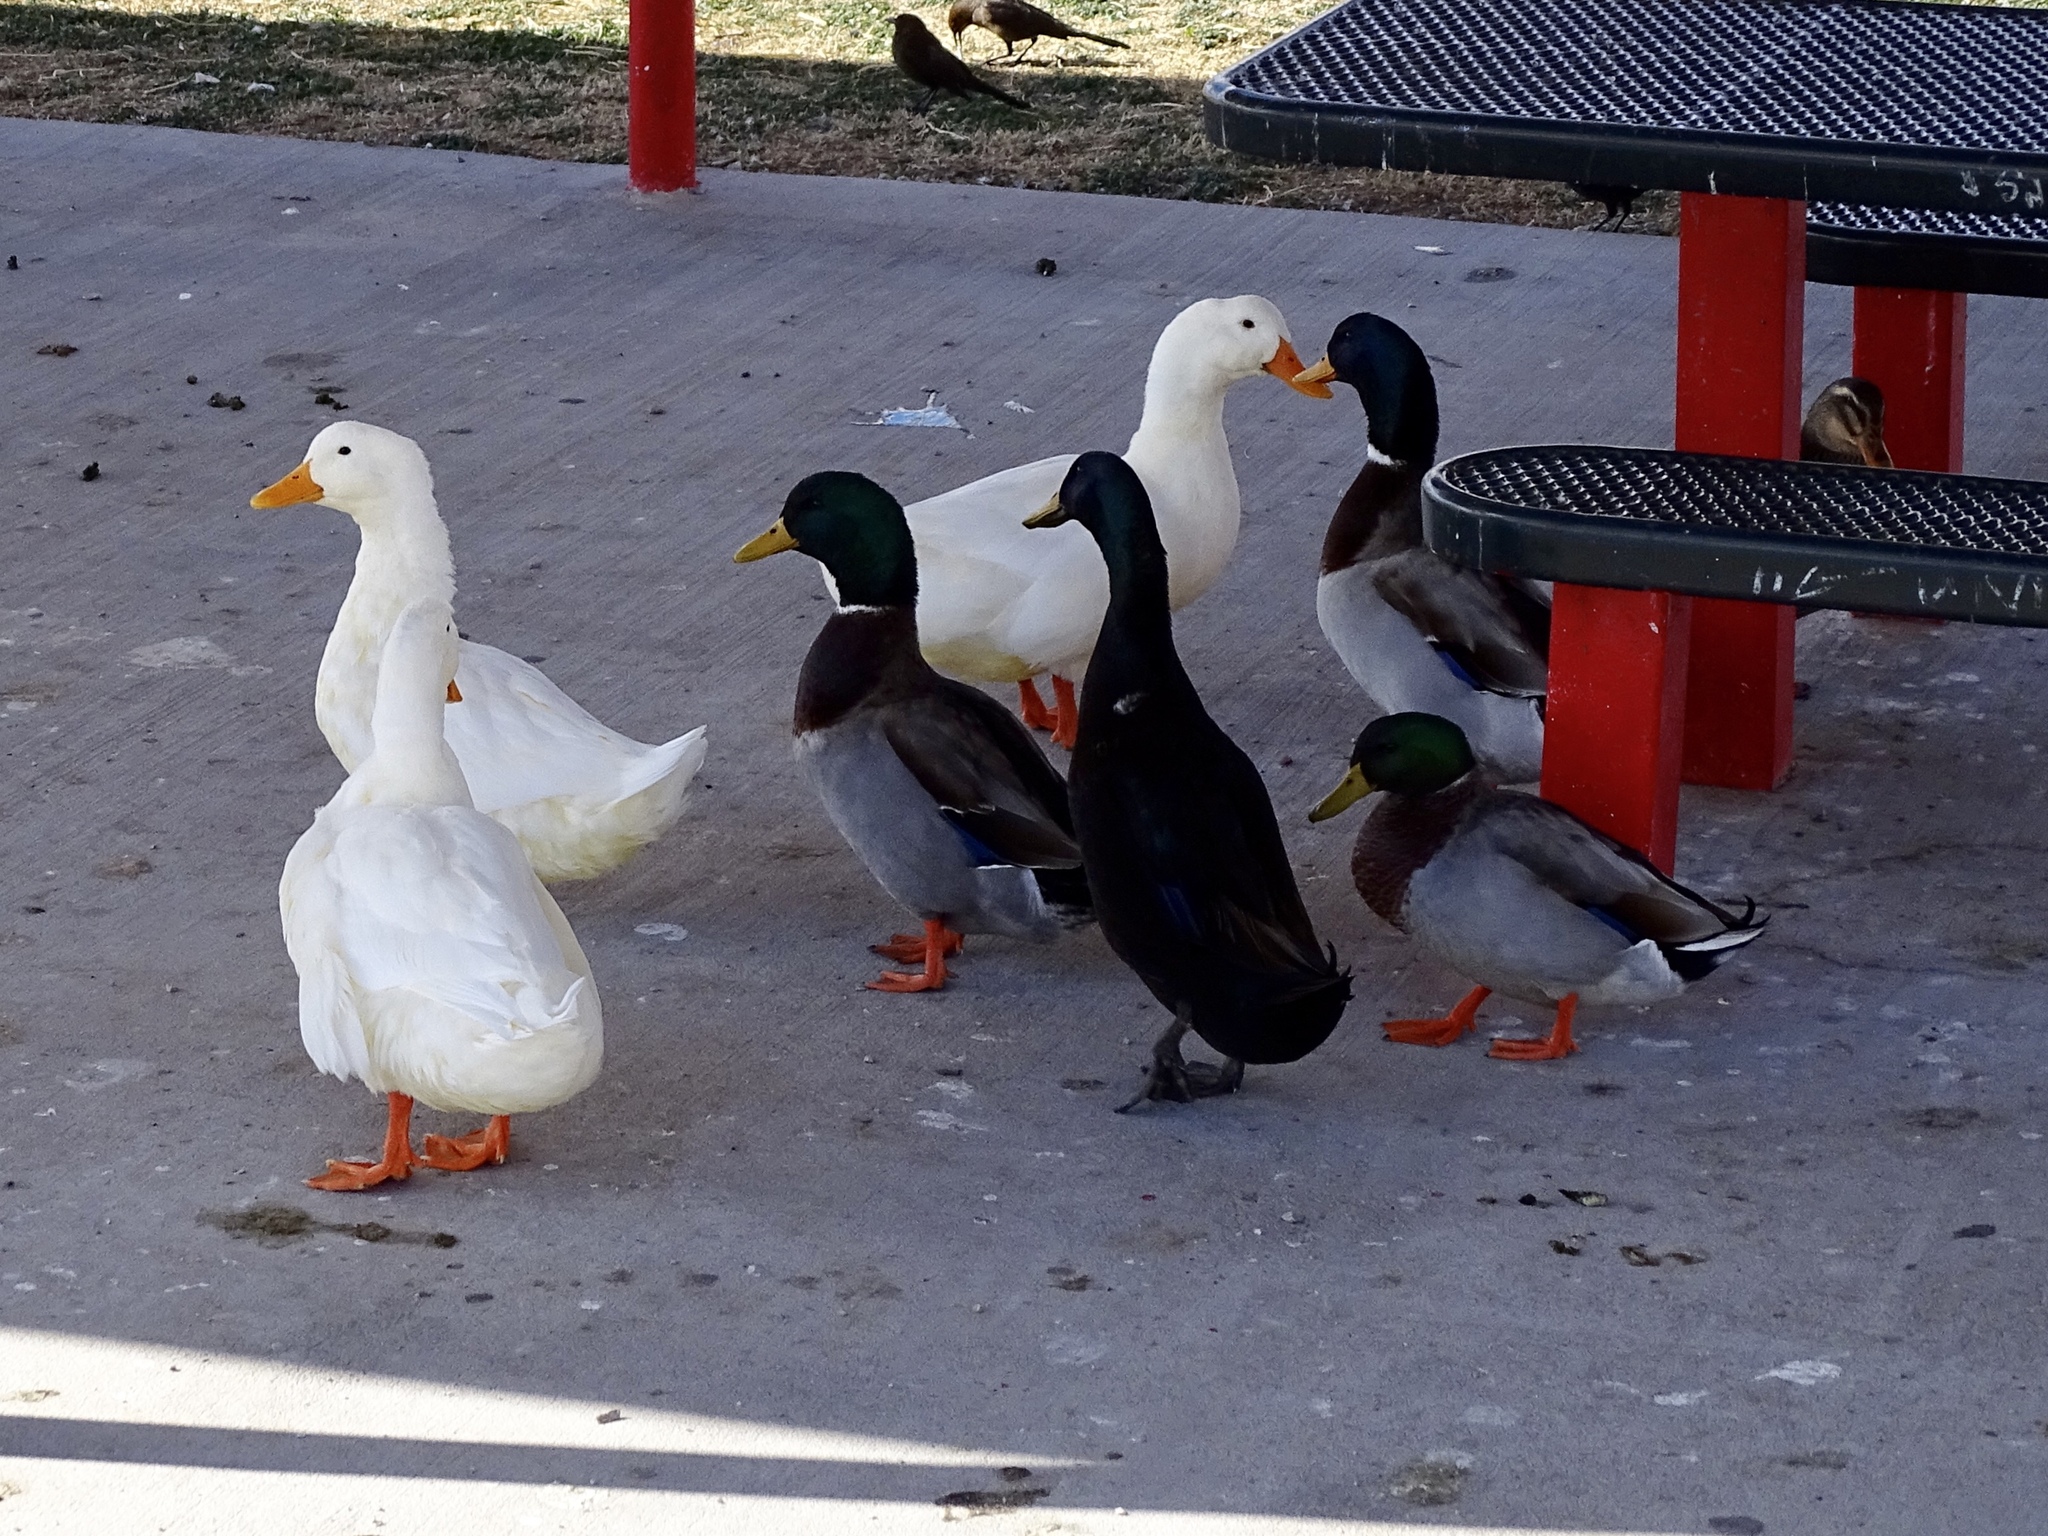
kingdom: Animalia
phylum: Chordata
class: Aves
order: Anseriformes
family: Anatidae
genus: Anas
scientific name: Anas platyrhynchos
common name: Mallard
